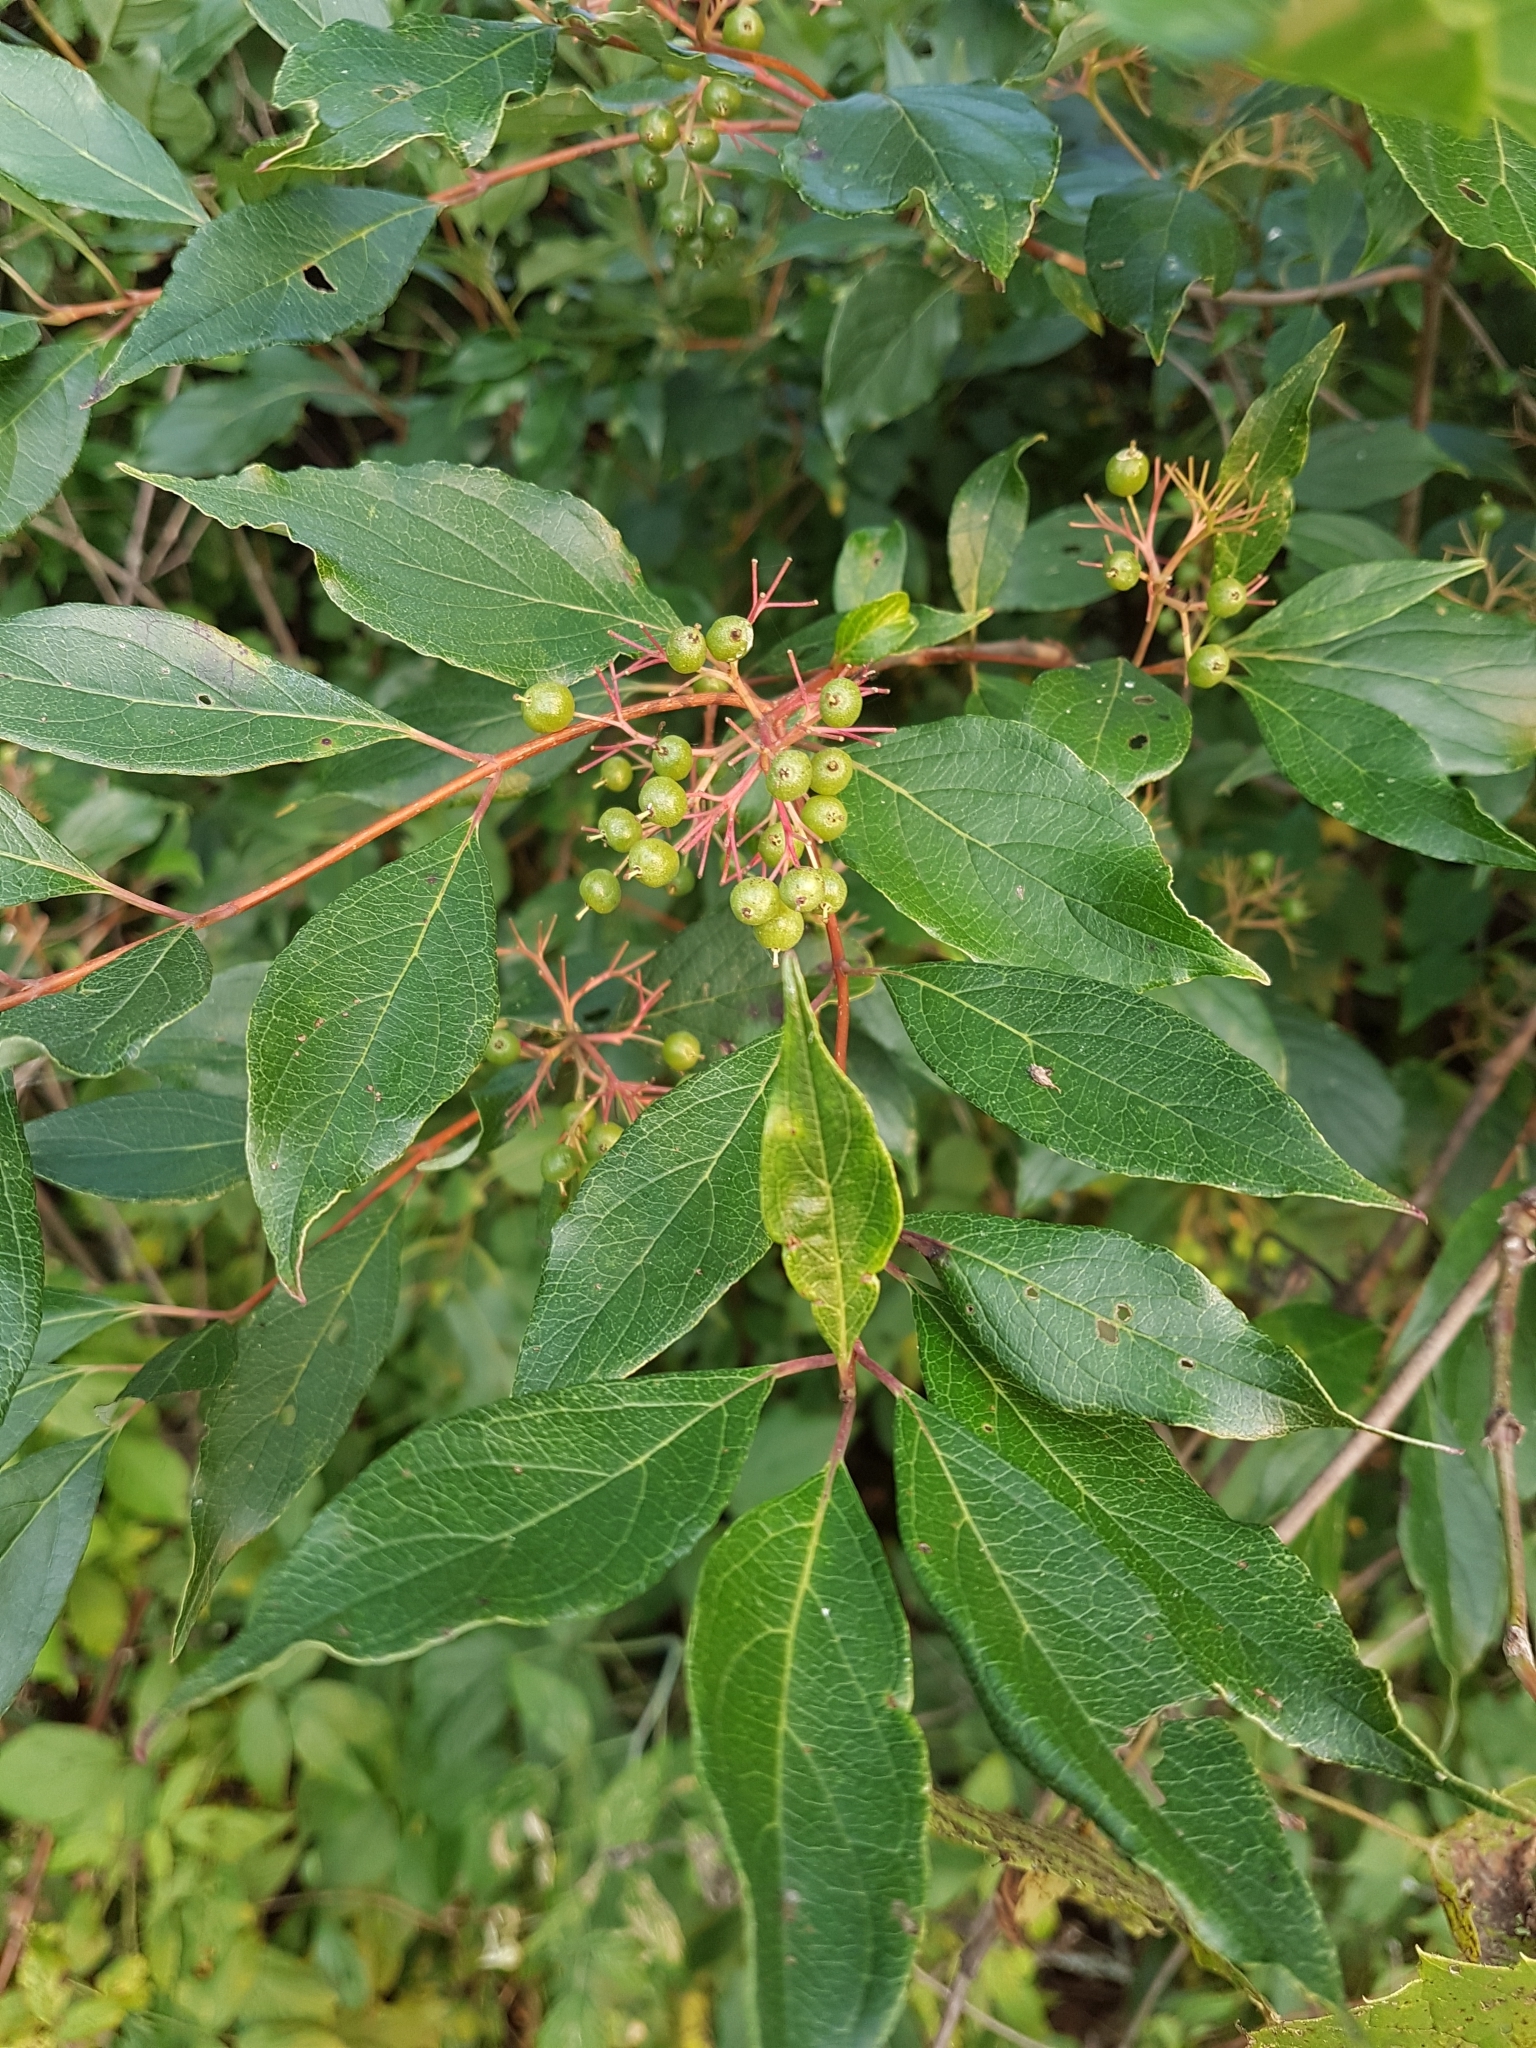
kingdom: Plantae
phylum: Tracheophyta
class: Magnoliopsida
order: Cornales
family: Cornaceae
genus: Cornus
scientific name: Cornus racemosa
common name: Panicled dogwood
